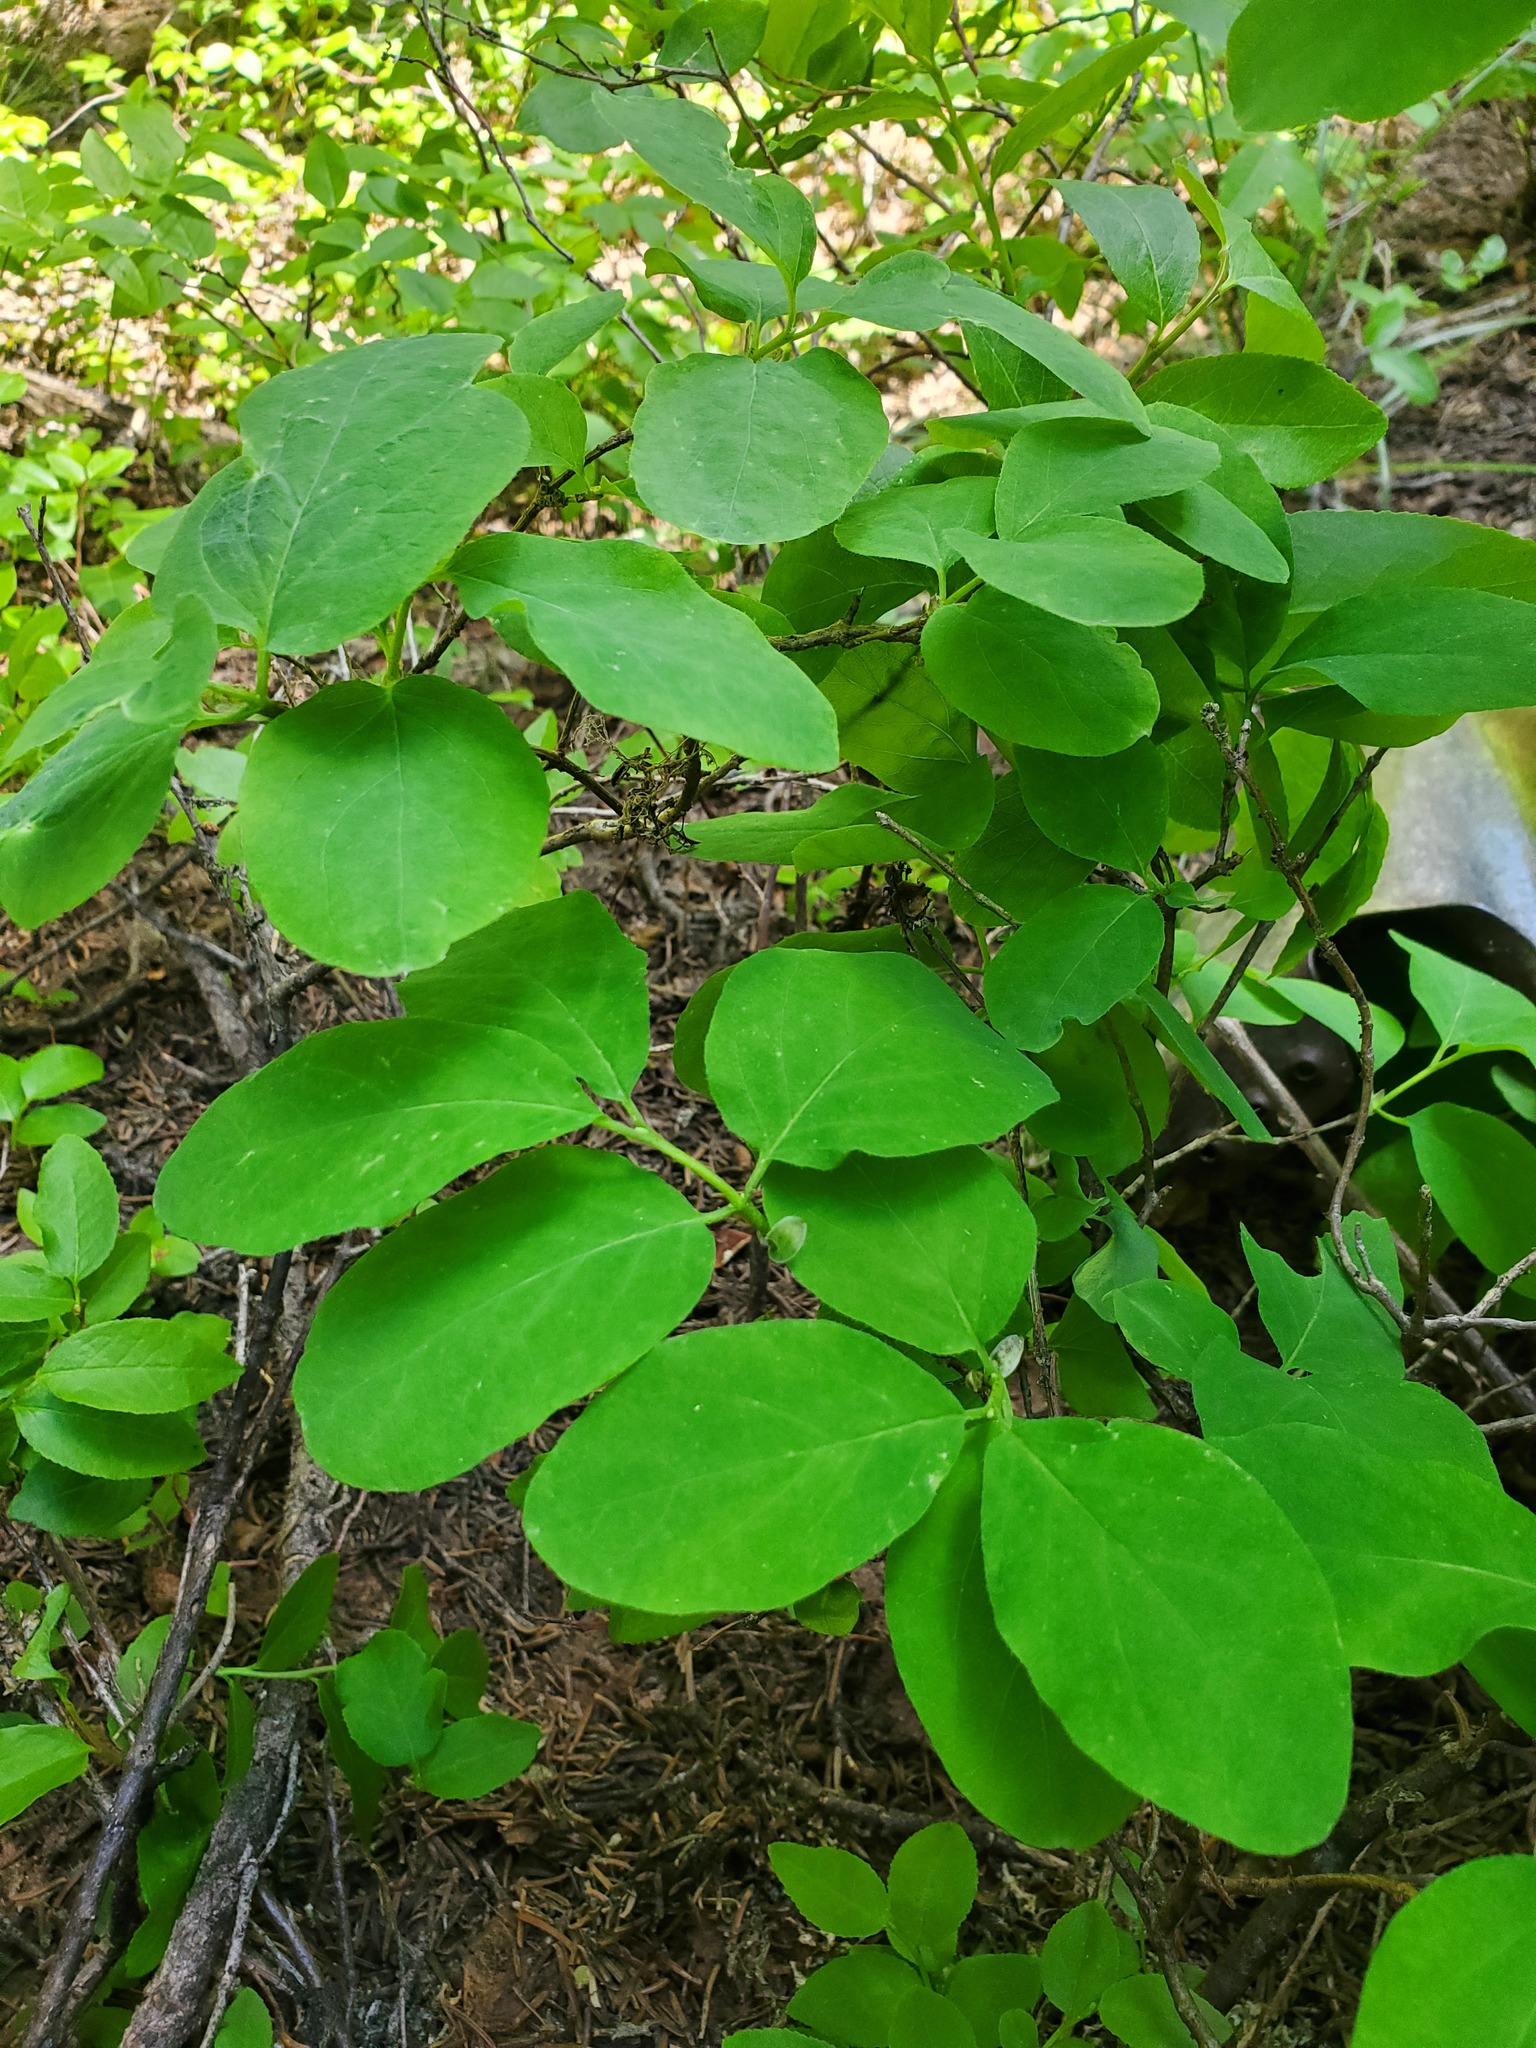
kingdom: Plantae
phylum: Tracheophyta
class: Magnoliopsida
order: Dipsacales
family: Caprifoliaceae
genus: Lonicera
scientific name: Lonicera utahensis
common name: Utah honeysuckle
